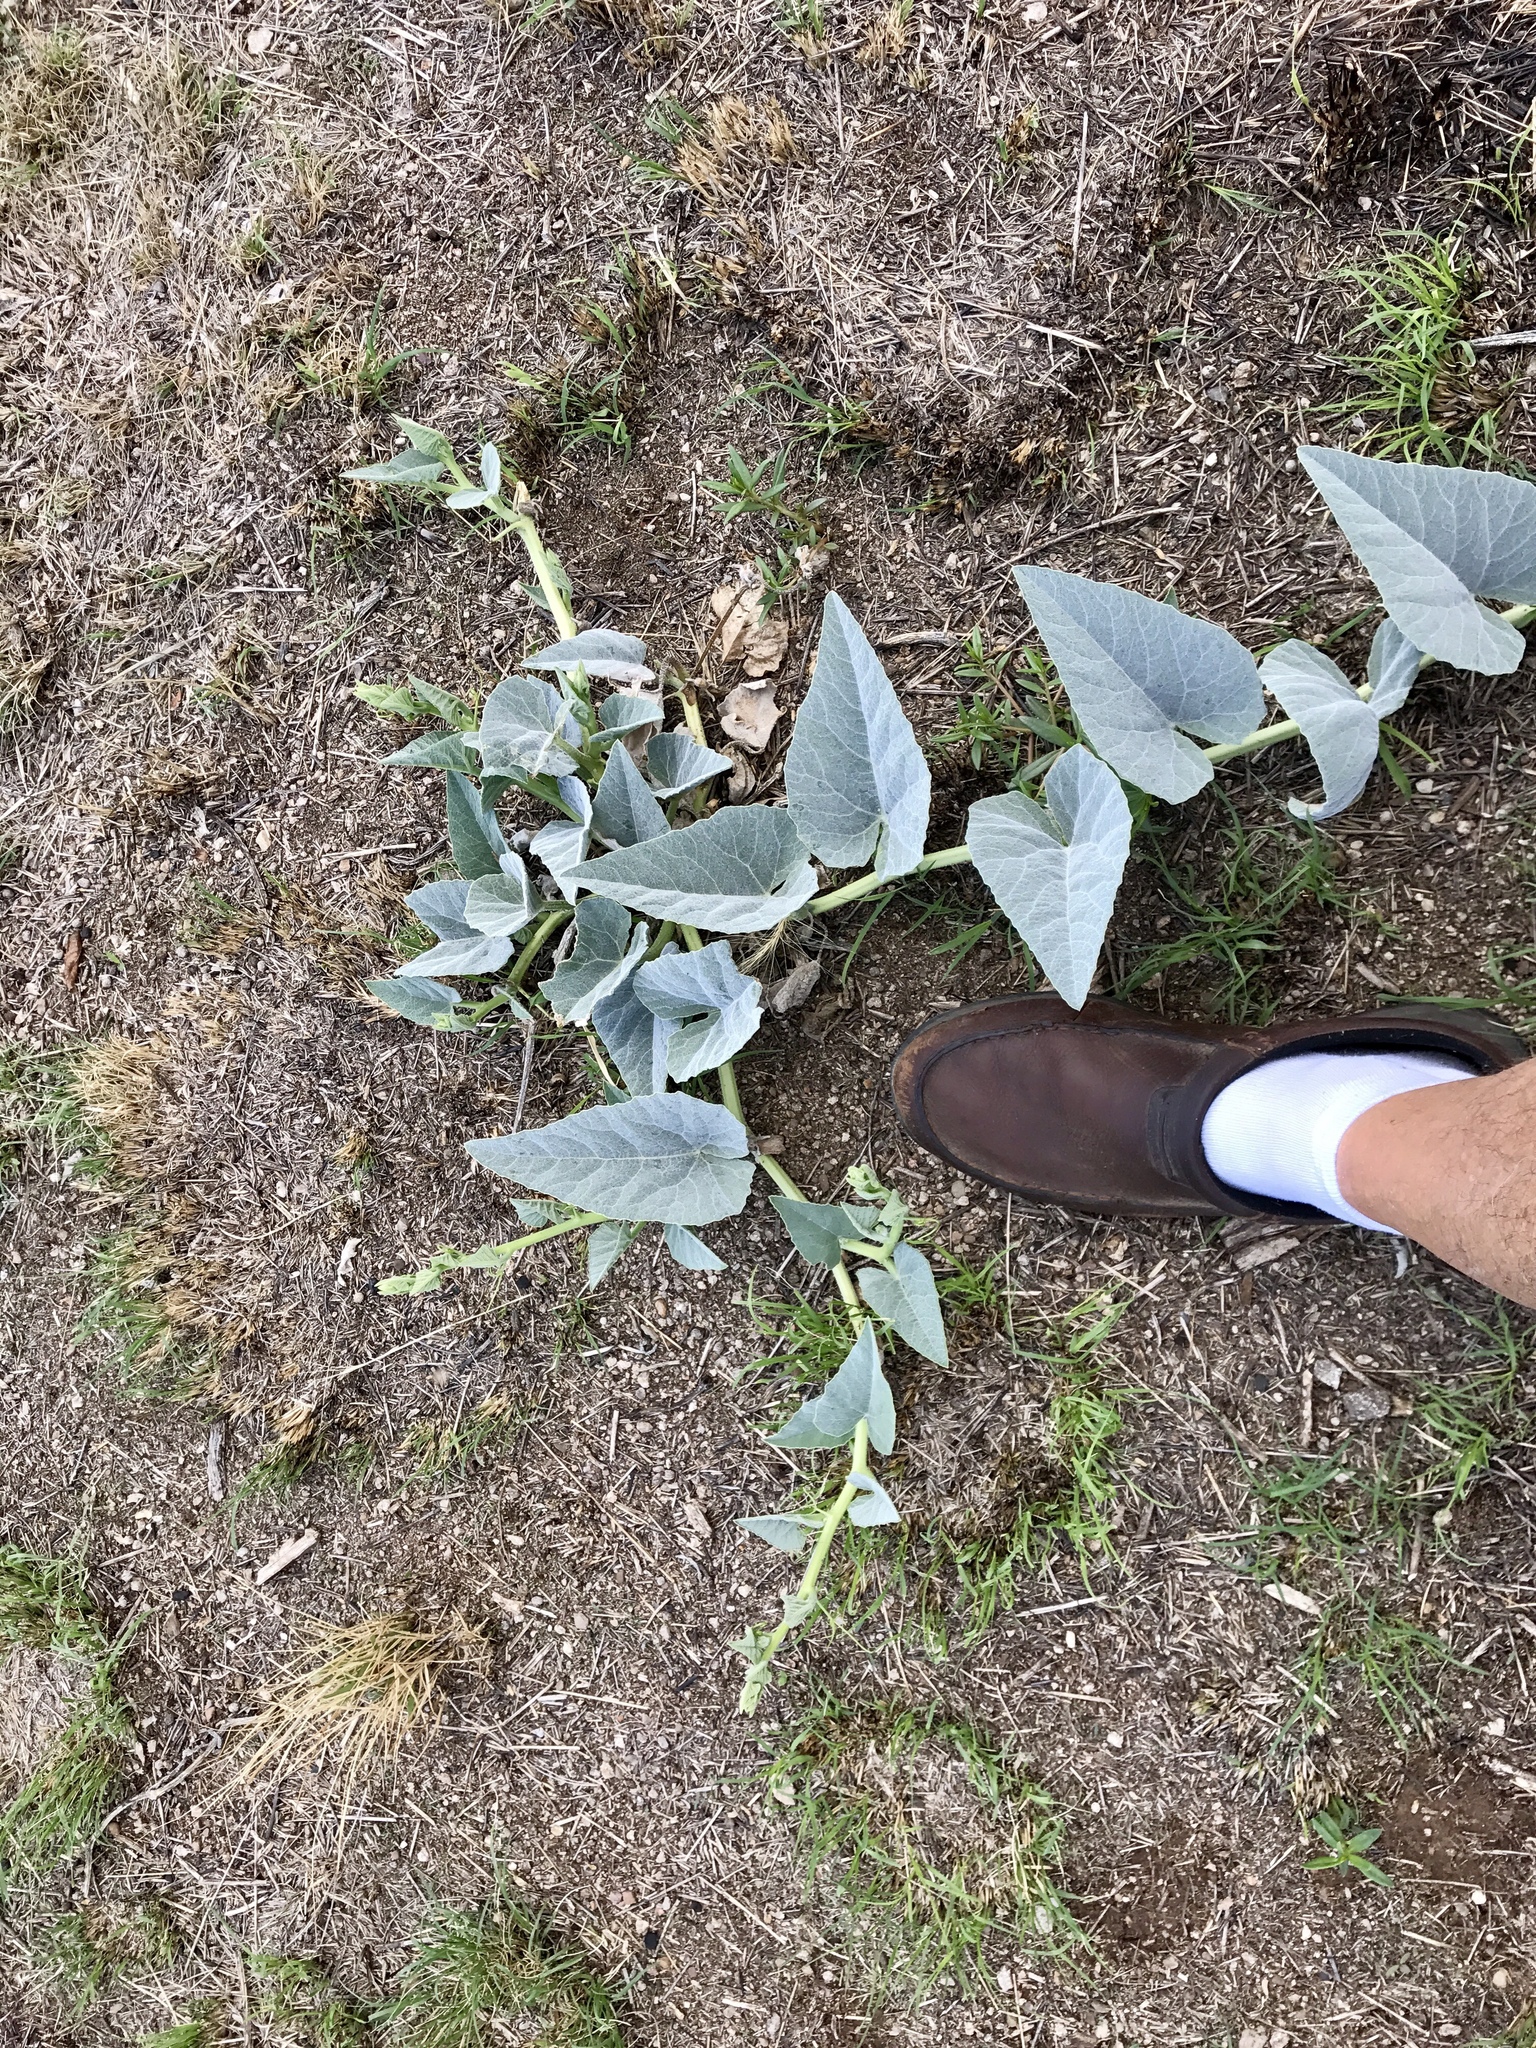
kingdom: Plantae
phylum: Tracheophyta
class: Magnoliopsida
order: Cucurbitales
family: Cucurbitaceae
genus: Cucurbita
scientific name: Cucurbita foetidissima
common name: Buffalo gourd
